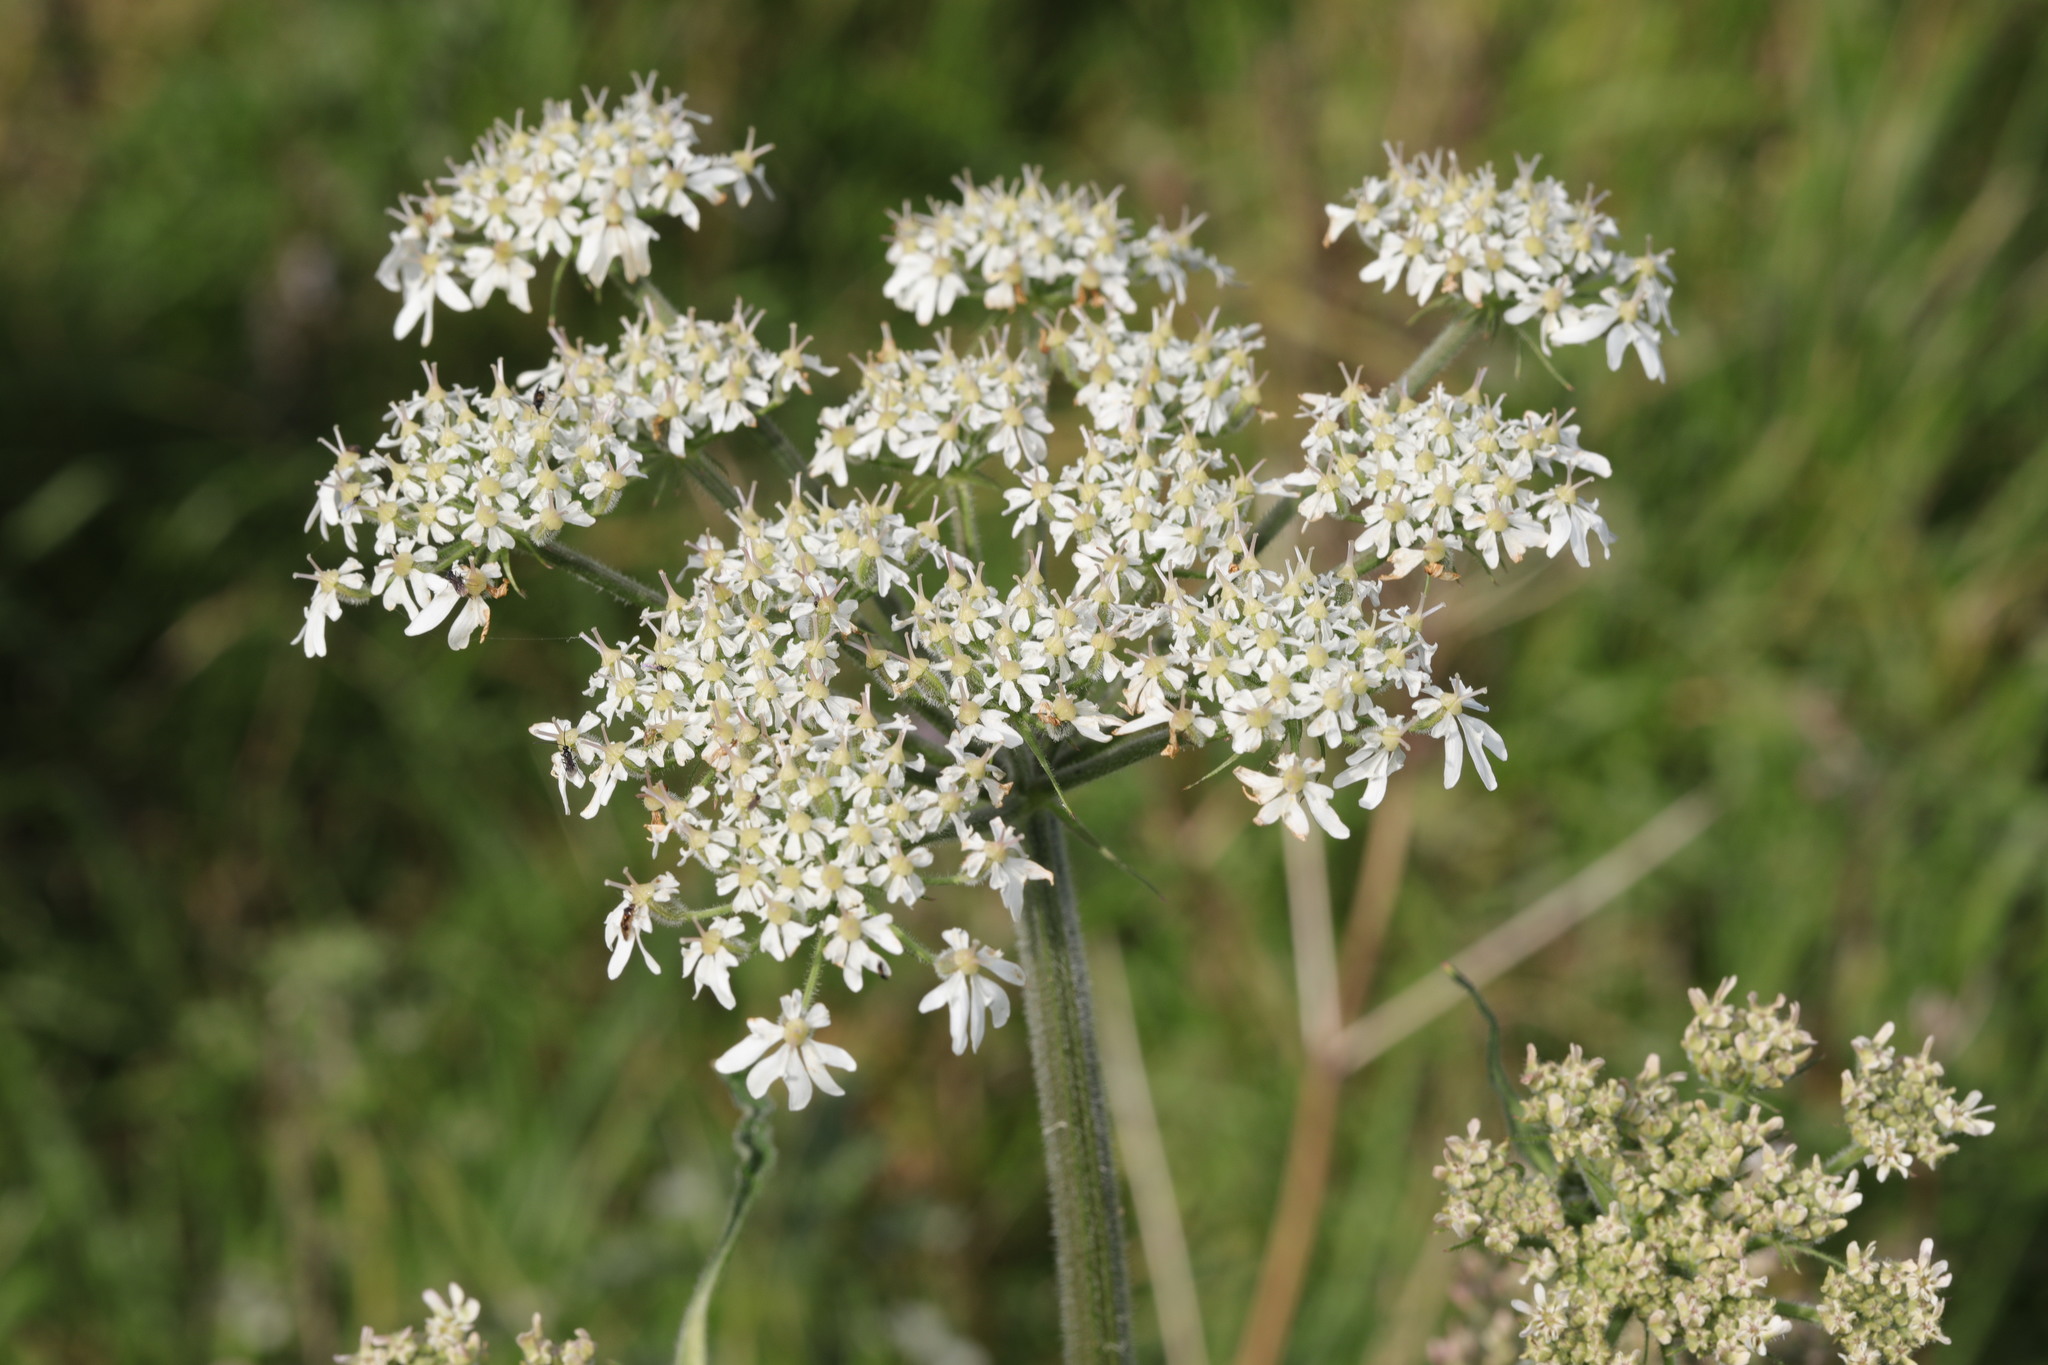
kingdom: Plantae
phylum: Tracheophyta
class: Magnoliopsida
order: Apiales
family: Apiaceae
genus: Heracleum
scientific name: Heracleum sphondylium
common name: Hogweed
